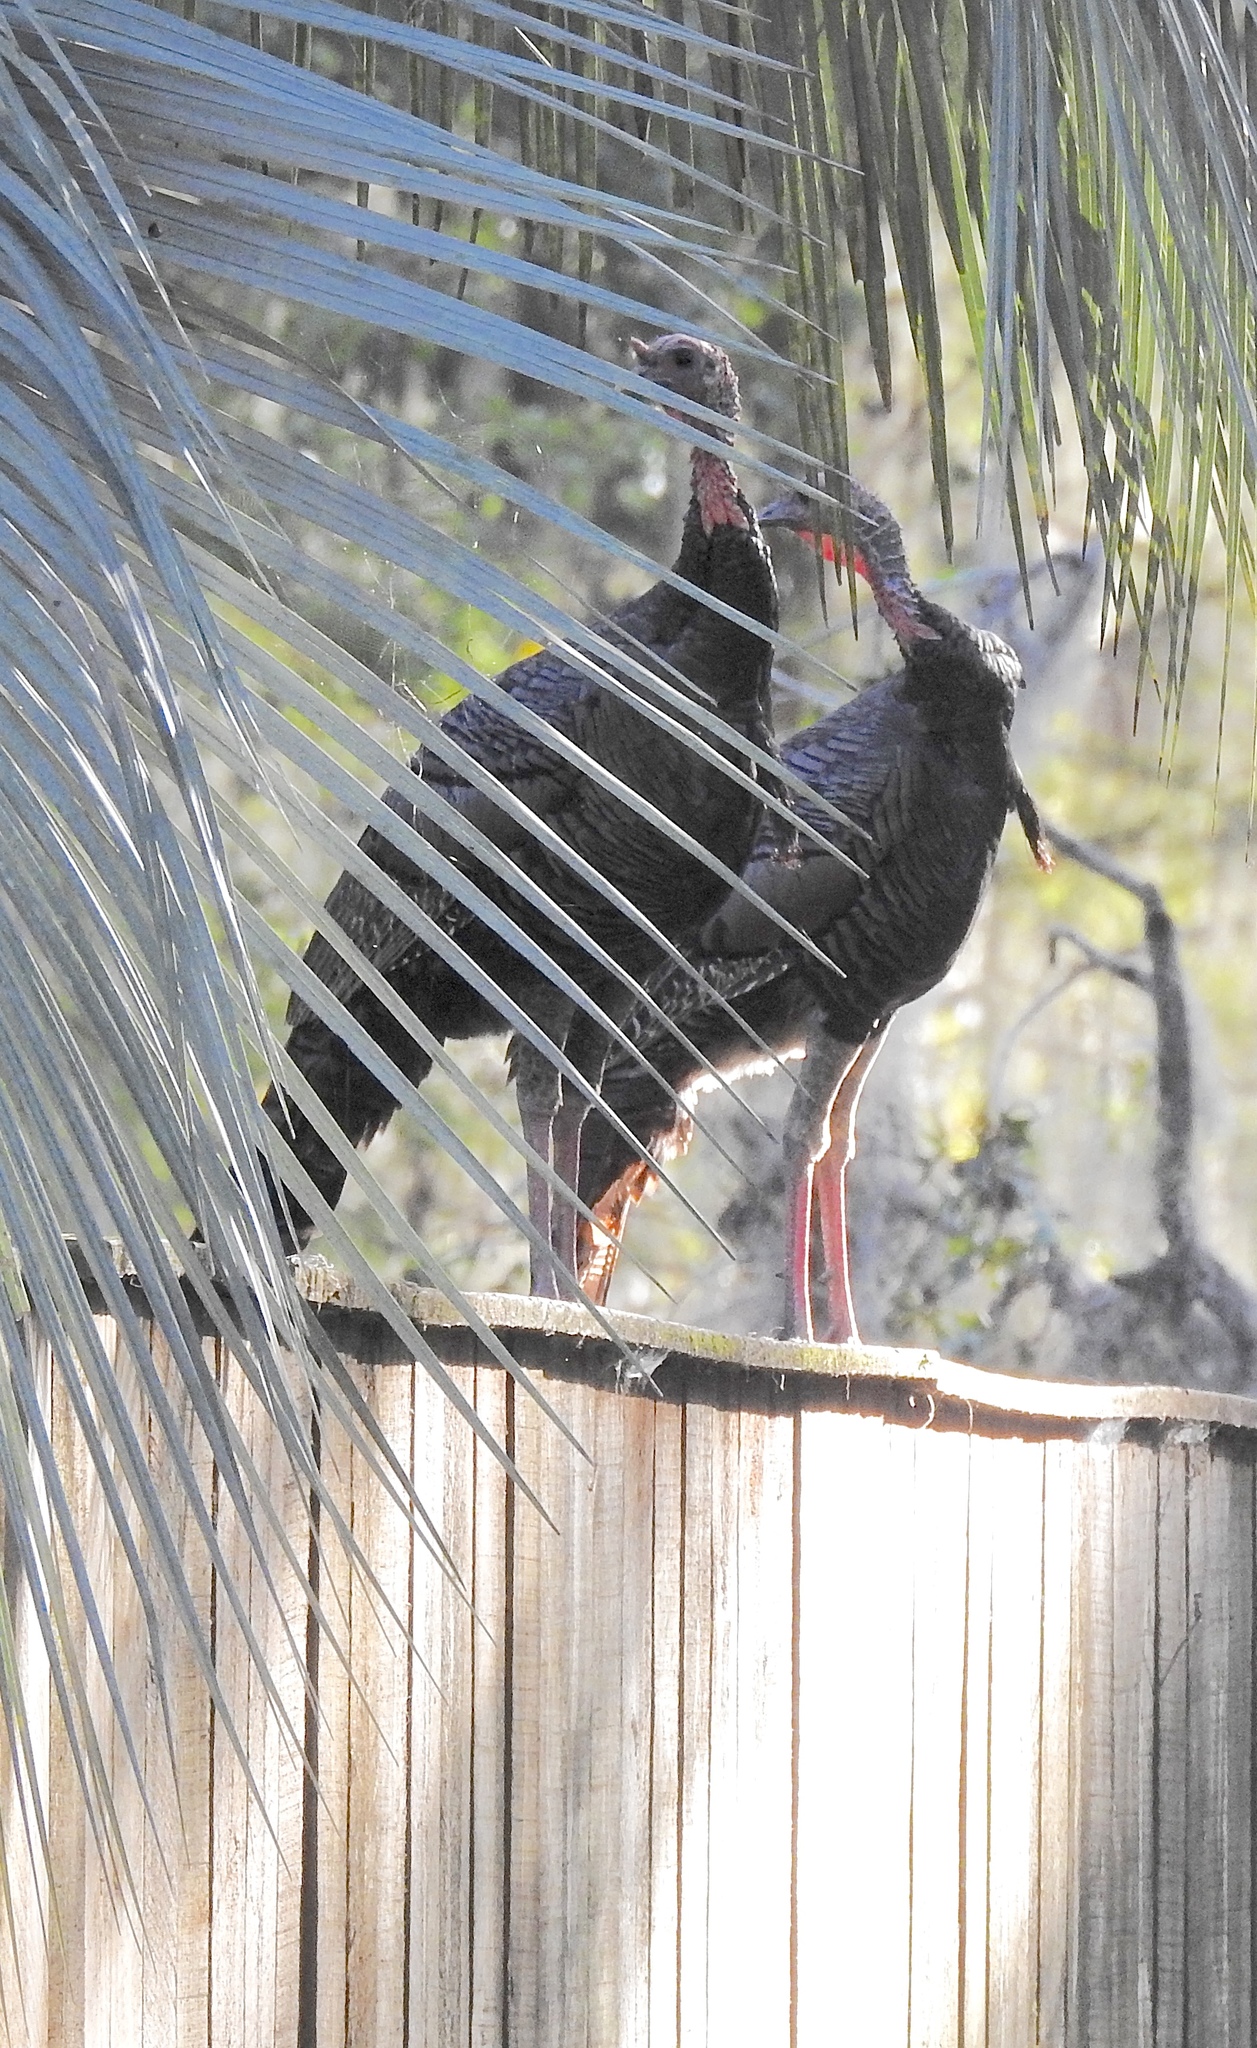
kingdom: Animalia
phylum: Chordata
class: Aves
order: Galliformes
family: Phasianidae
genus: Meleagris
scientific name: Meleagris gallopavo
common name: Wild turkey
